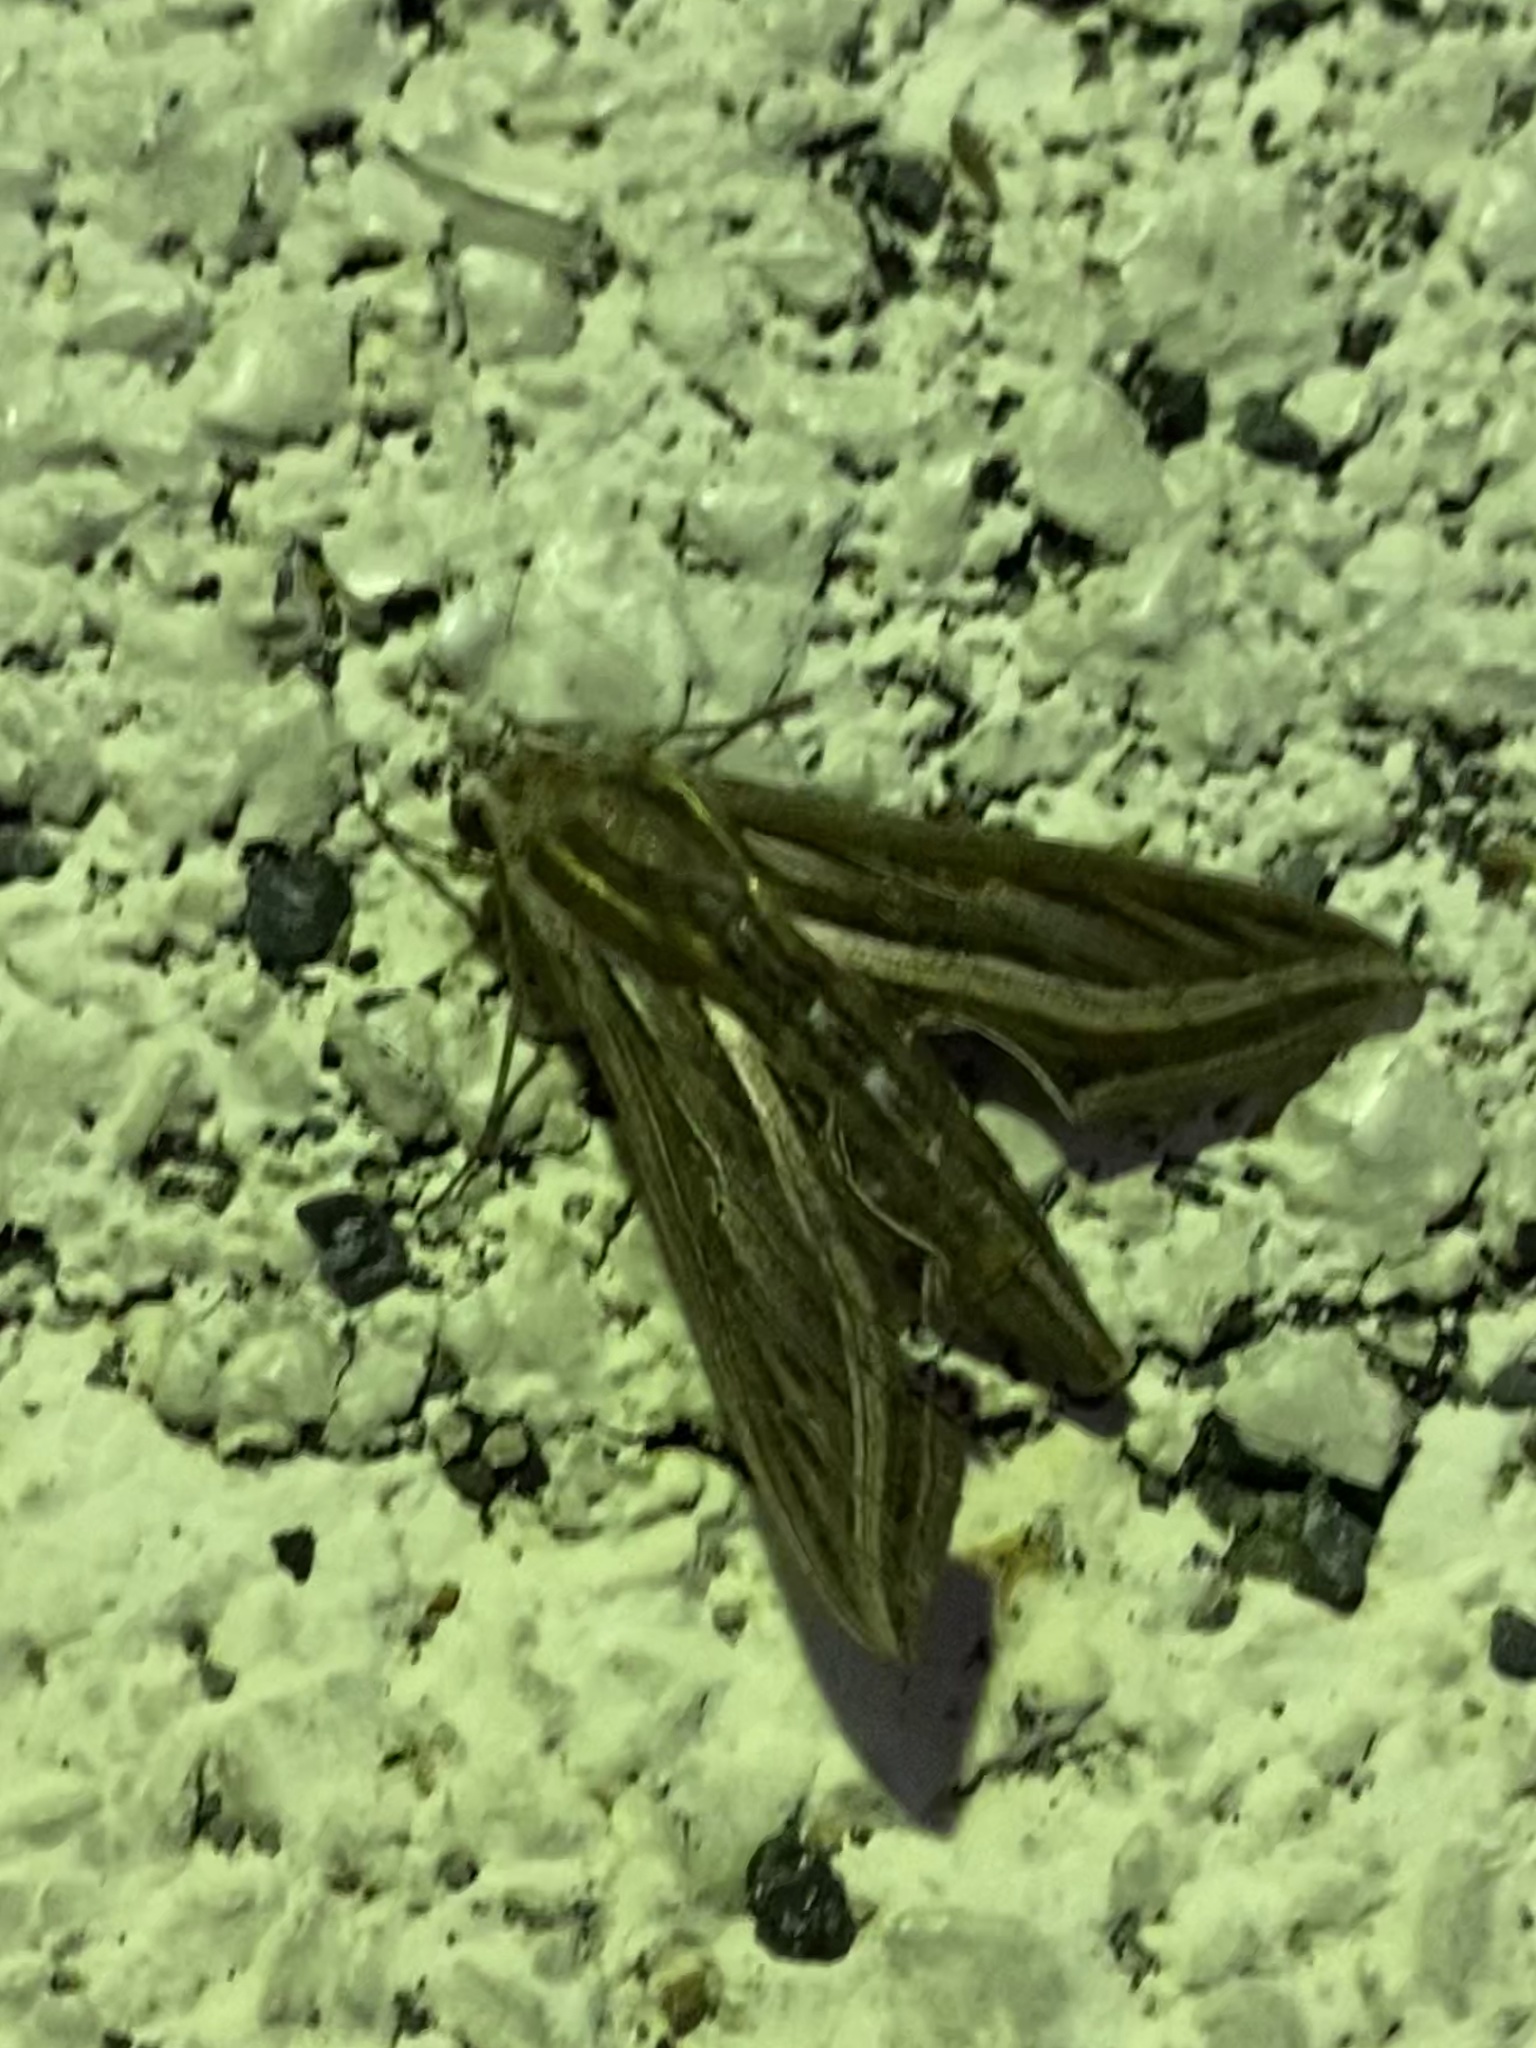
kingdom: Animalia
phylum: Arthropoda
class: Insecta
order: Lepidoptera
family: Sphingidae
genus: Hippotion
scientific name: Hippotion celerio
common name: Silver-striped hawk-moth
